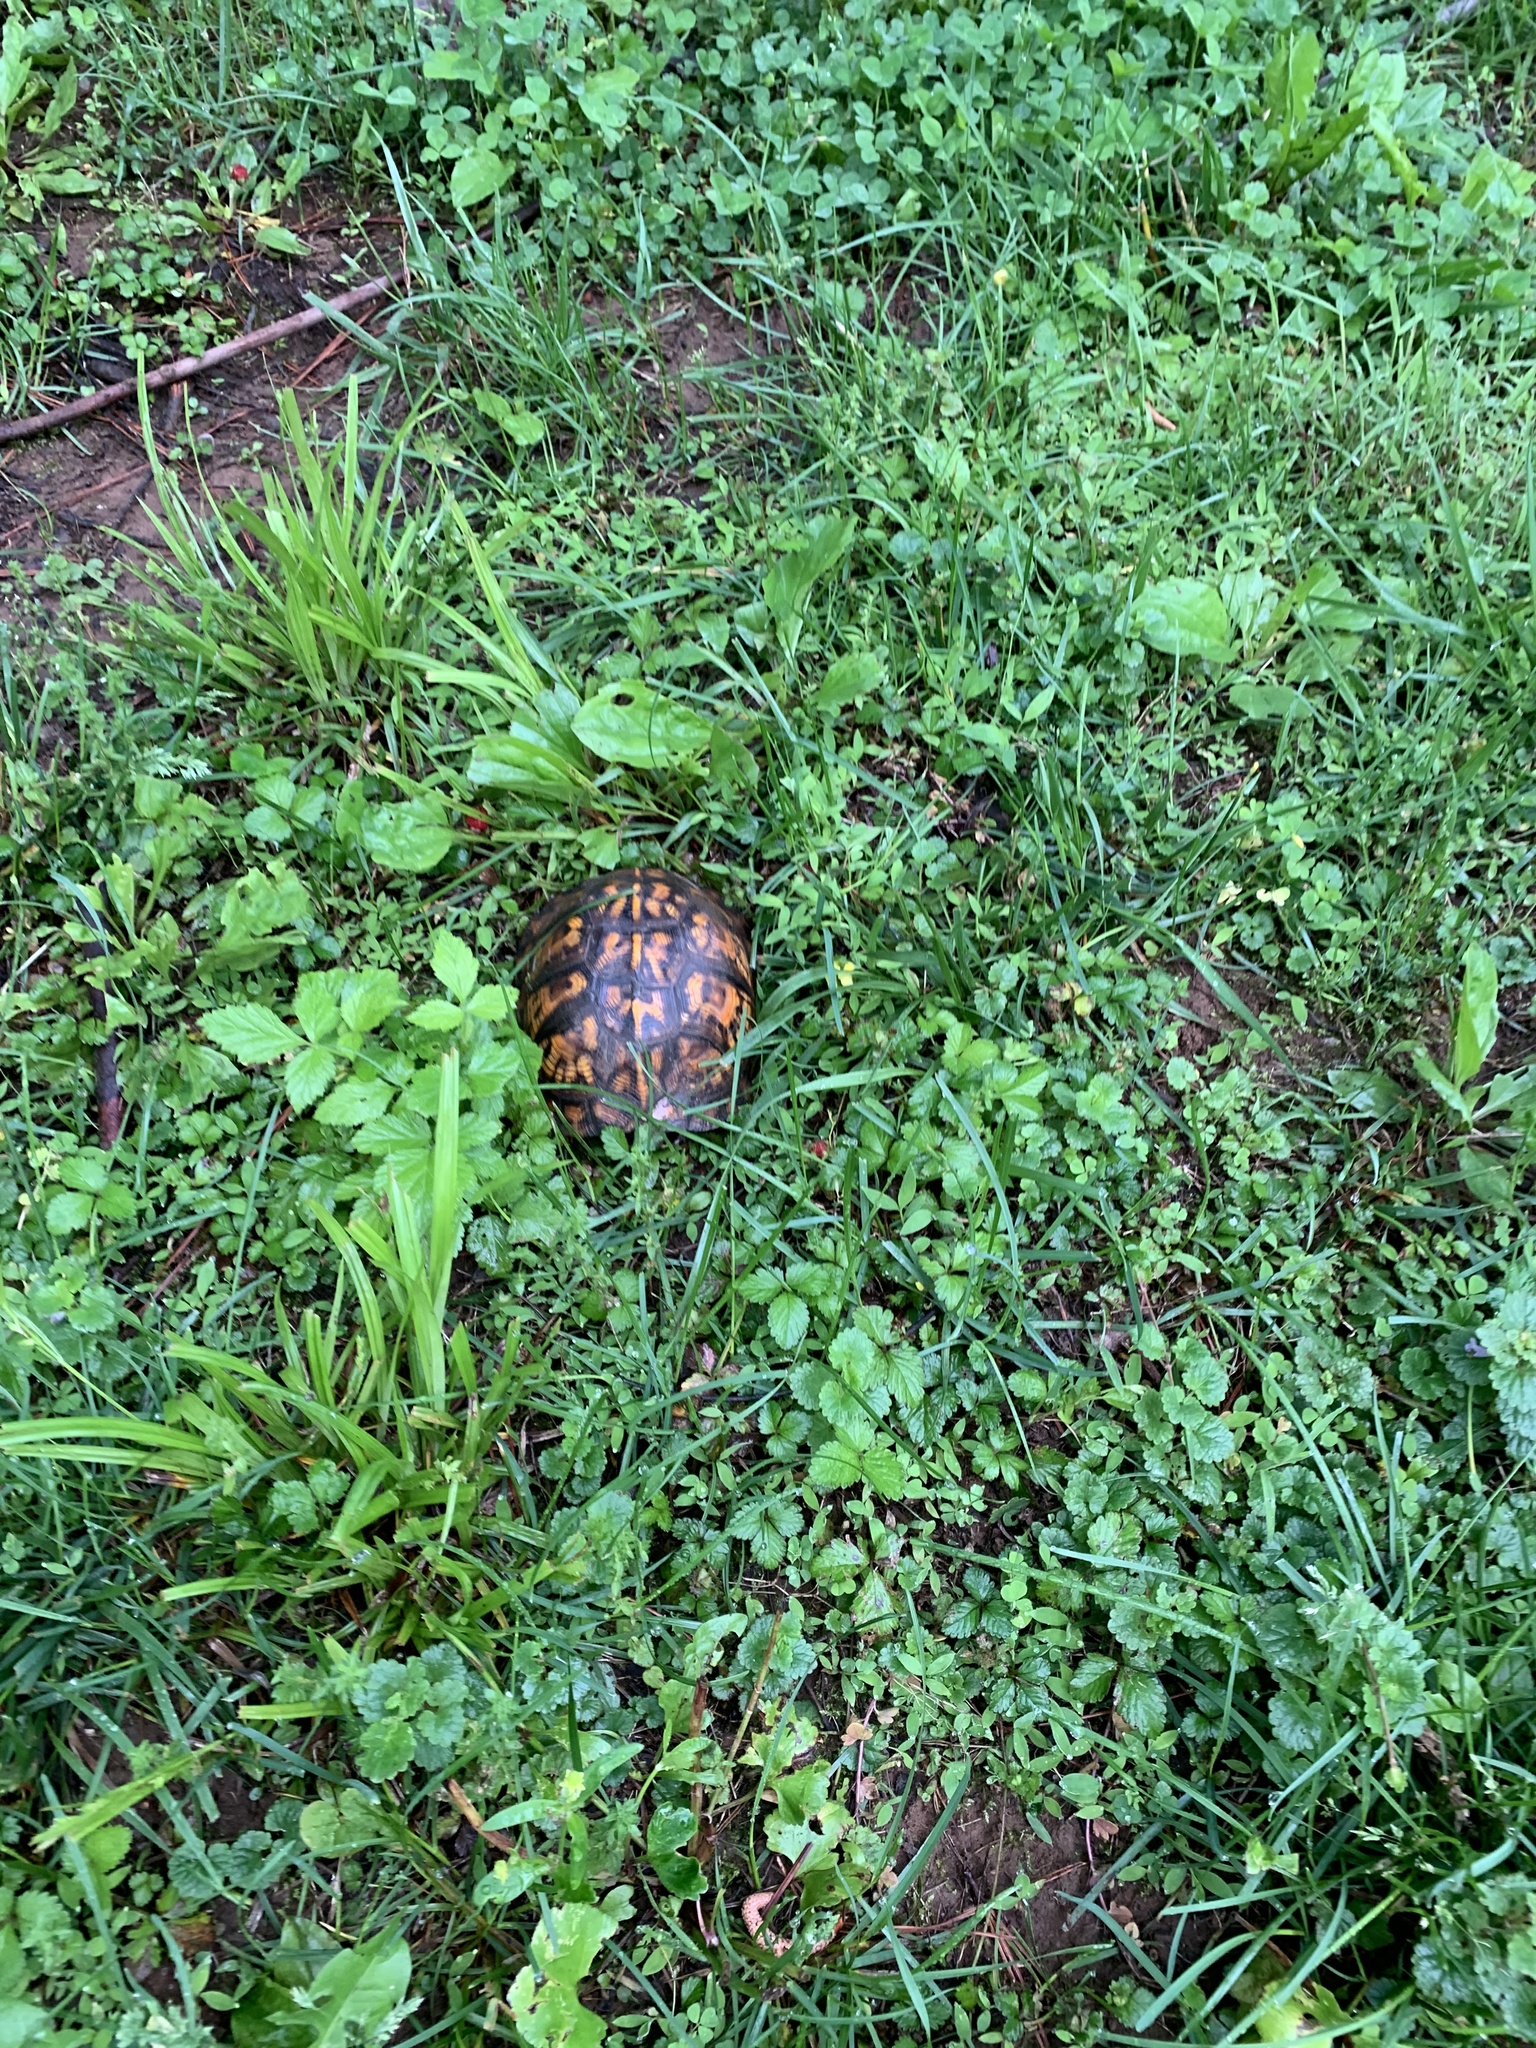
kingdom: Animalia
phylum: Chordata
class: Testudines
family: Emydidae
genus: Terrapene
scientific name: Terrapene carolina
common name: Common box turtle
